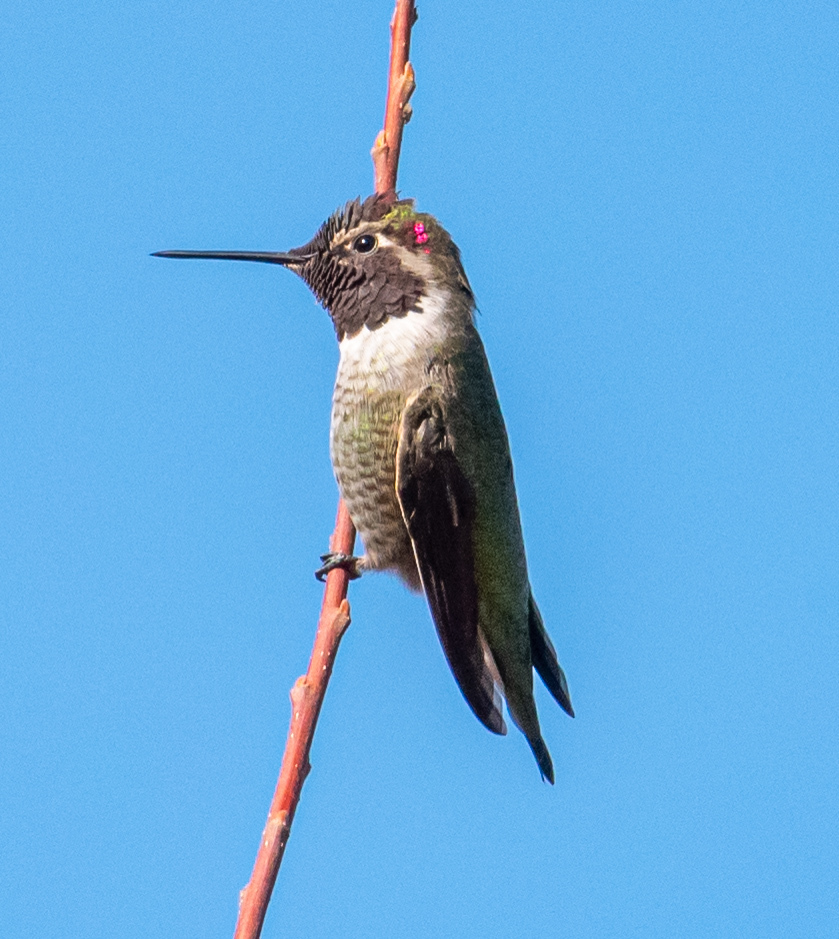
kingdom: Animalia
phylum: Chordata
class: Aves
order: Apodiformes
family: Trochilidae
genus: Calypte
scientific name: Calypte anna
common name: Anna's hummingbird
